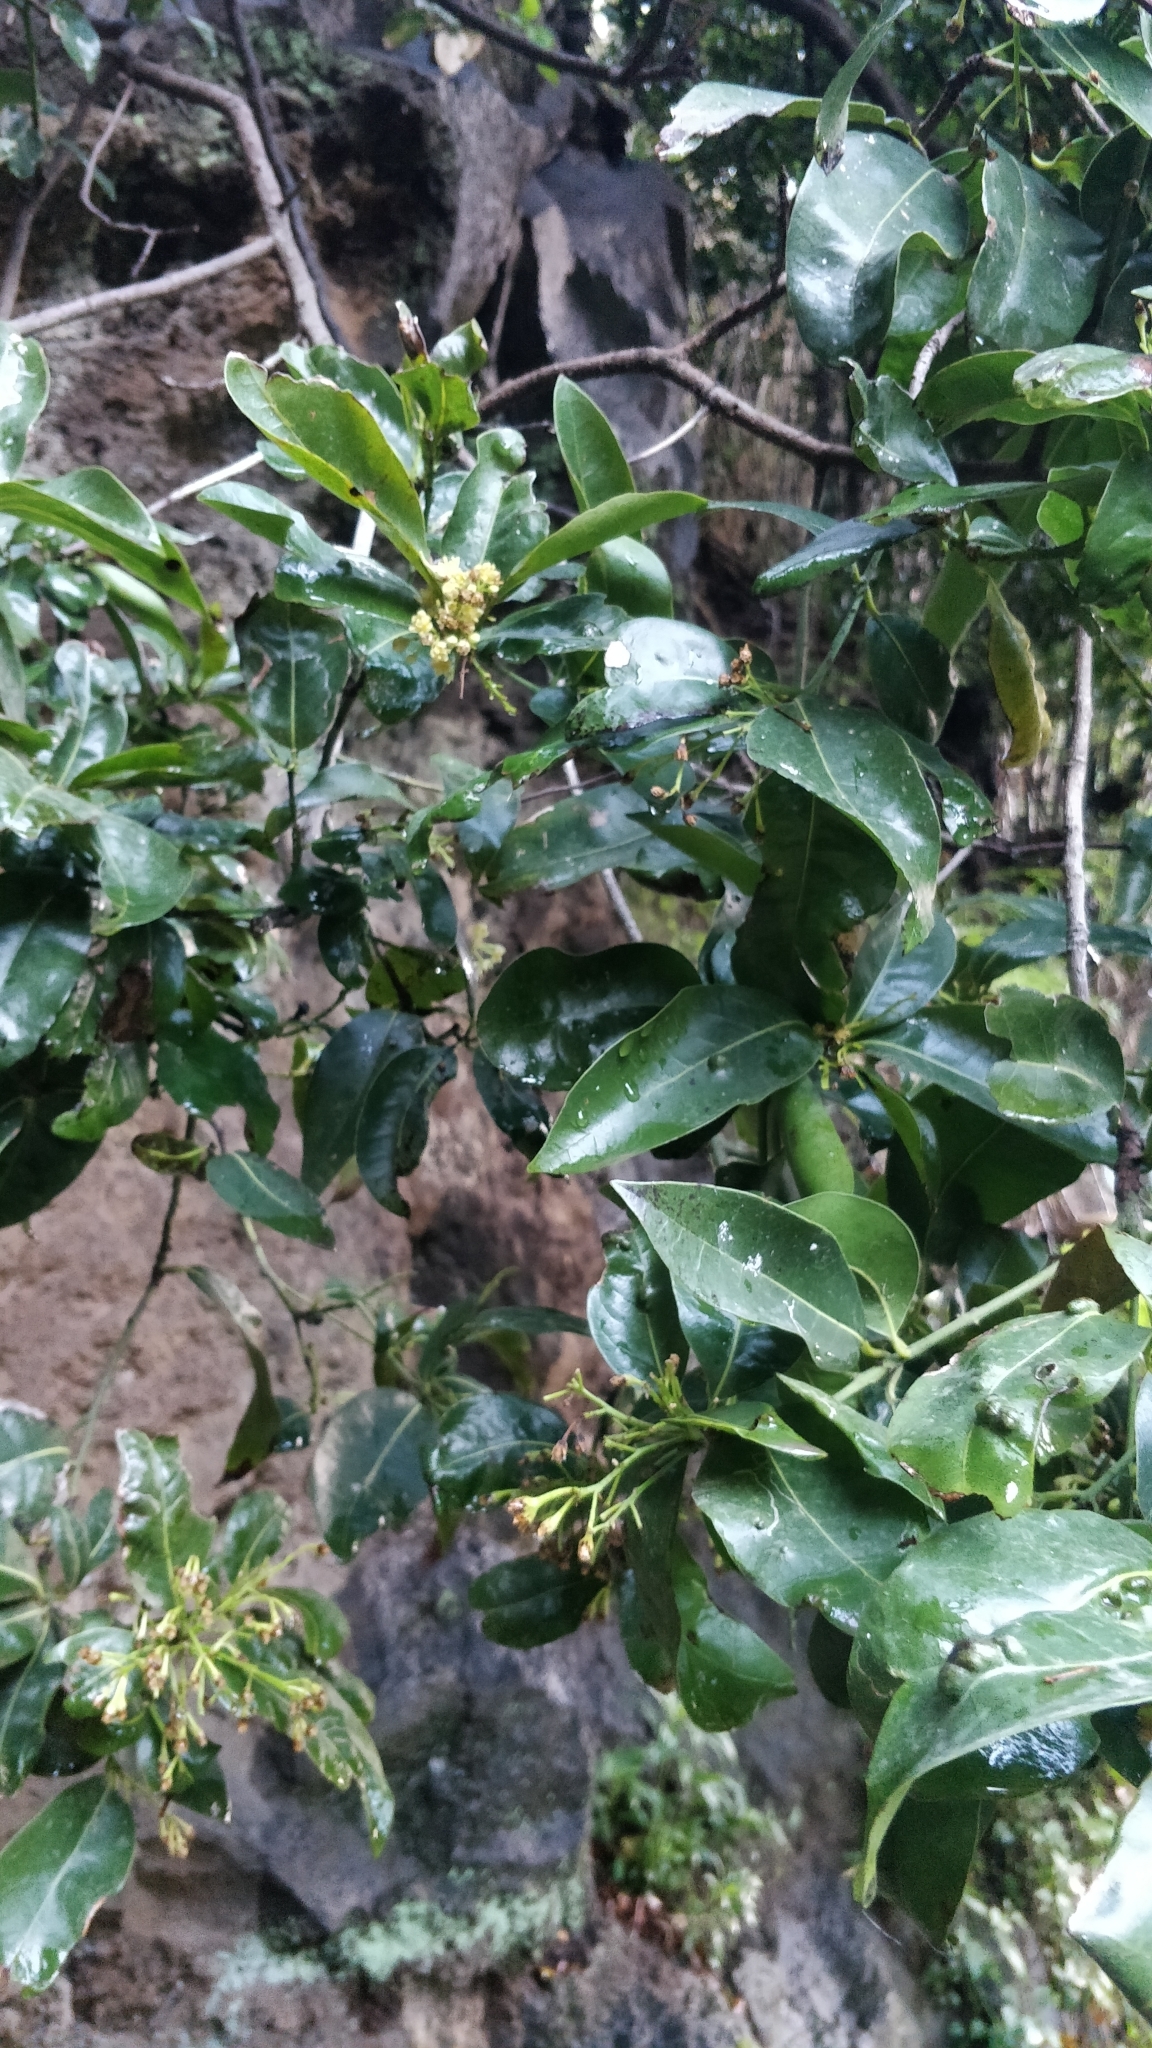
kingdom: Plantae
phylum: Tracheophyta
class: Magnoliopsida
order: Laurales
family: Lauraceae
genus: Apollonias
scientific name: Apollonias barbujana
